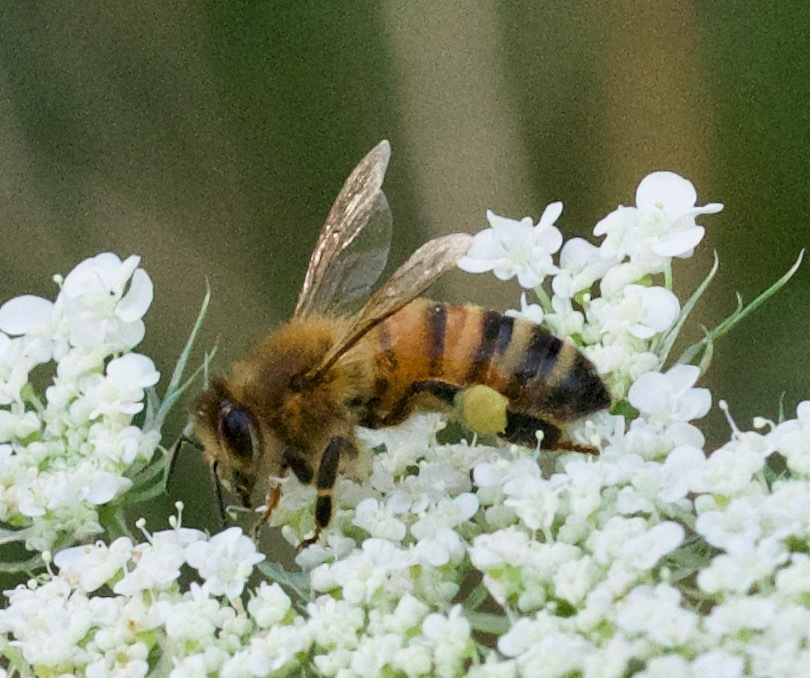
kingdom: Animalia
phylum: Arthropoda
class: Insecta
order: Hymenoptera
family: Apidae
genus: Apis
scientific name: Apis mellifera
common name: Honey bee
